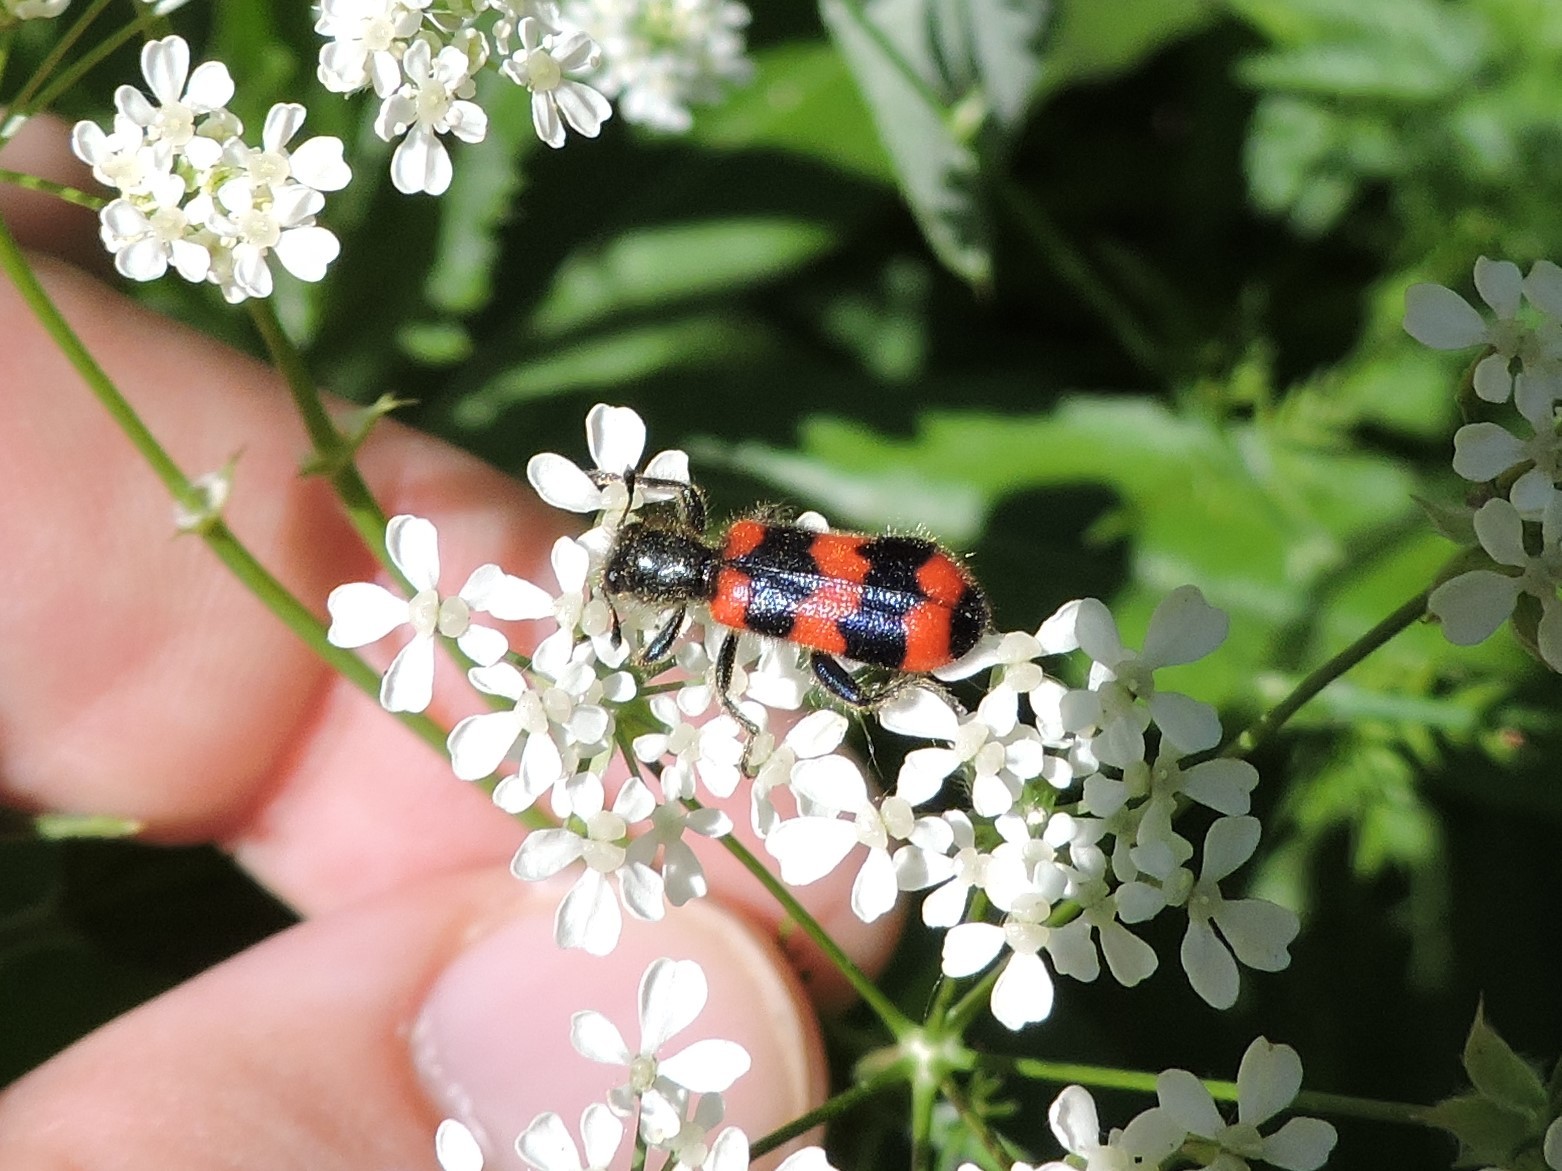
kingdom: Animalia
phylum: Arthropoda
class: Insecta
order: Coleoptera
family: Cleridae
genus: Trichodes
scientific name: Trichodes apiarius
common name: Bee-eating beetle
